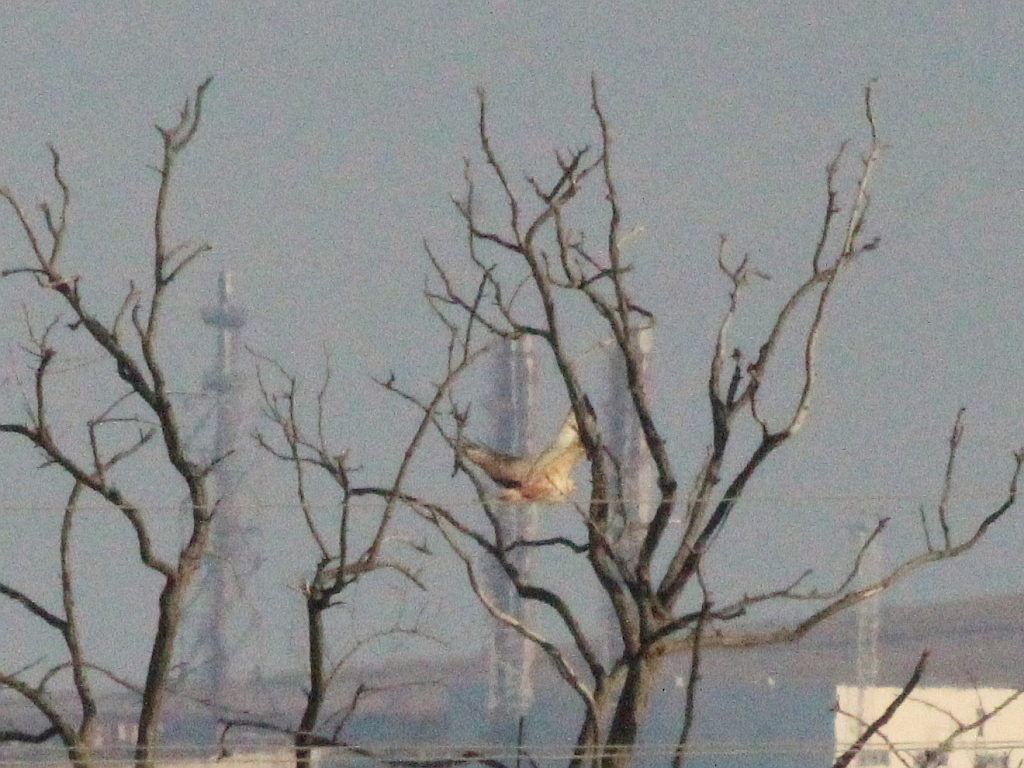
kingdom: Animalia
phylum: Chordata
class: Aves
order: Accipitriformes
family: Accipitridae
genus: Buteo
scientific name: Buteo rufinus
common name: Long-legged buzzard
